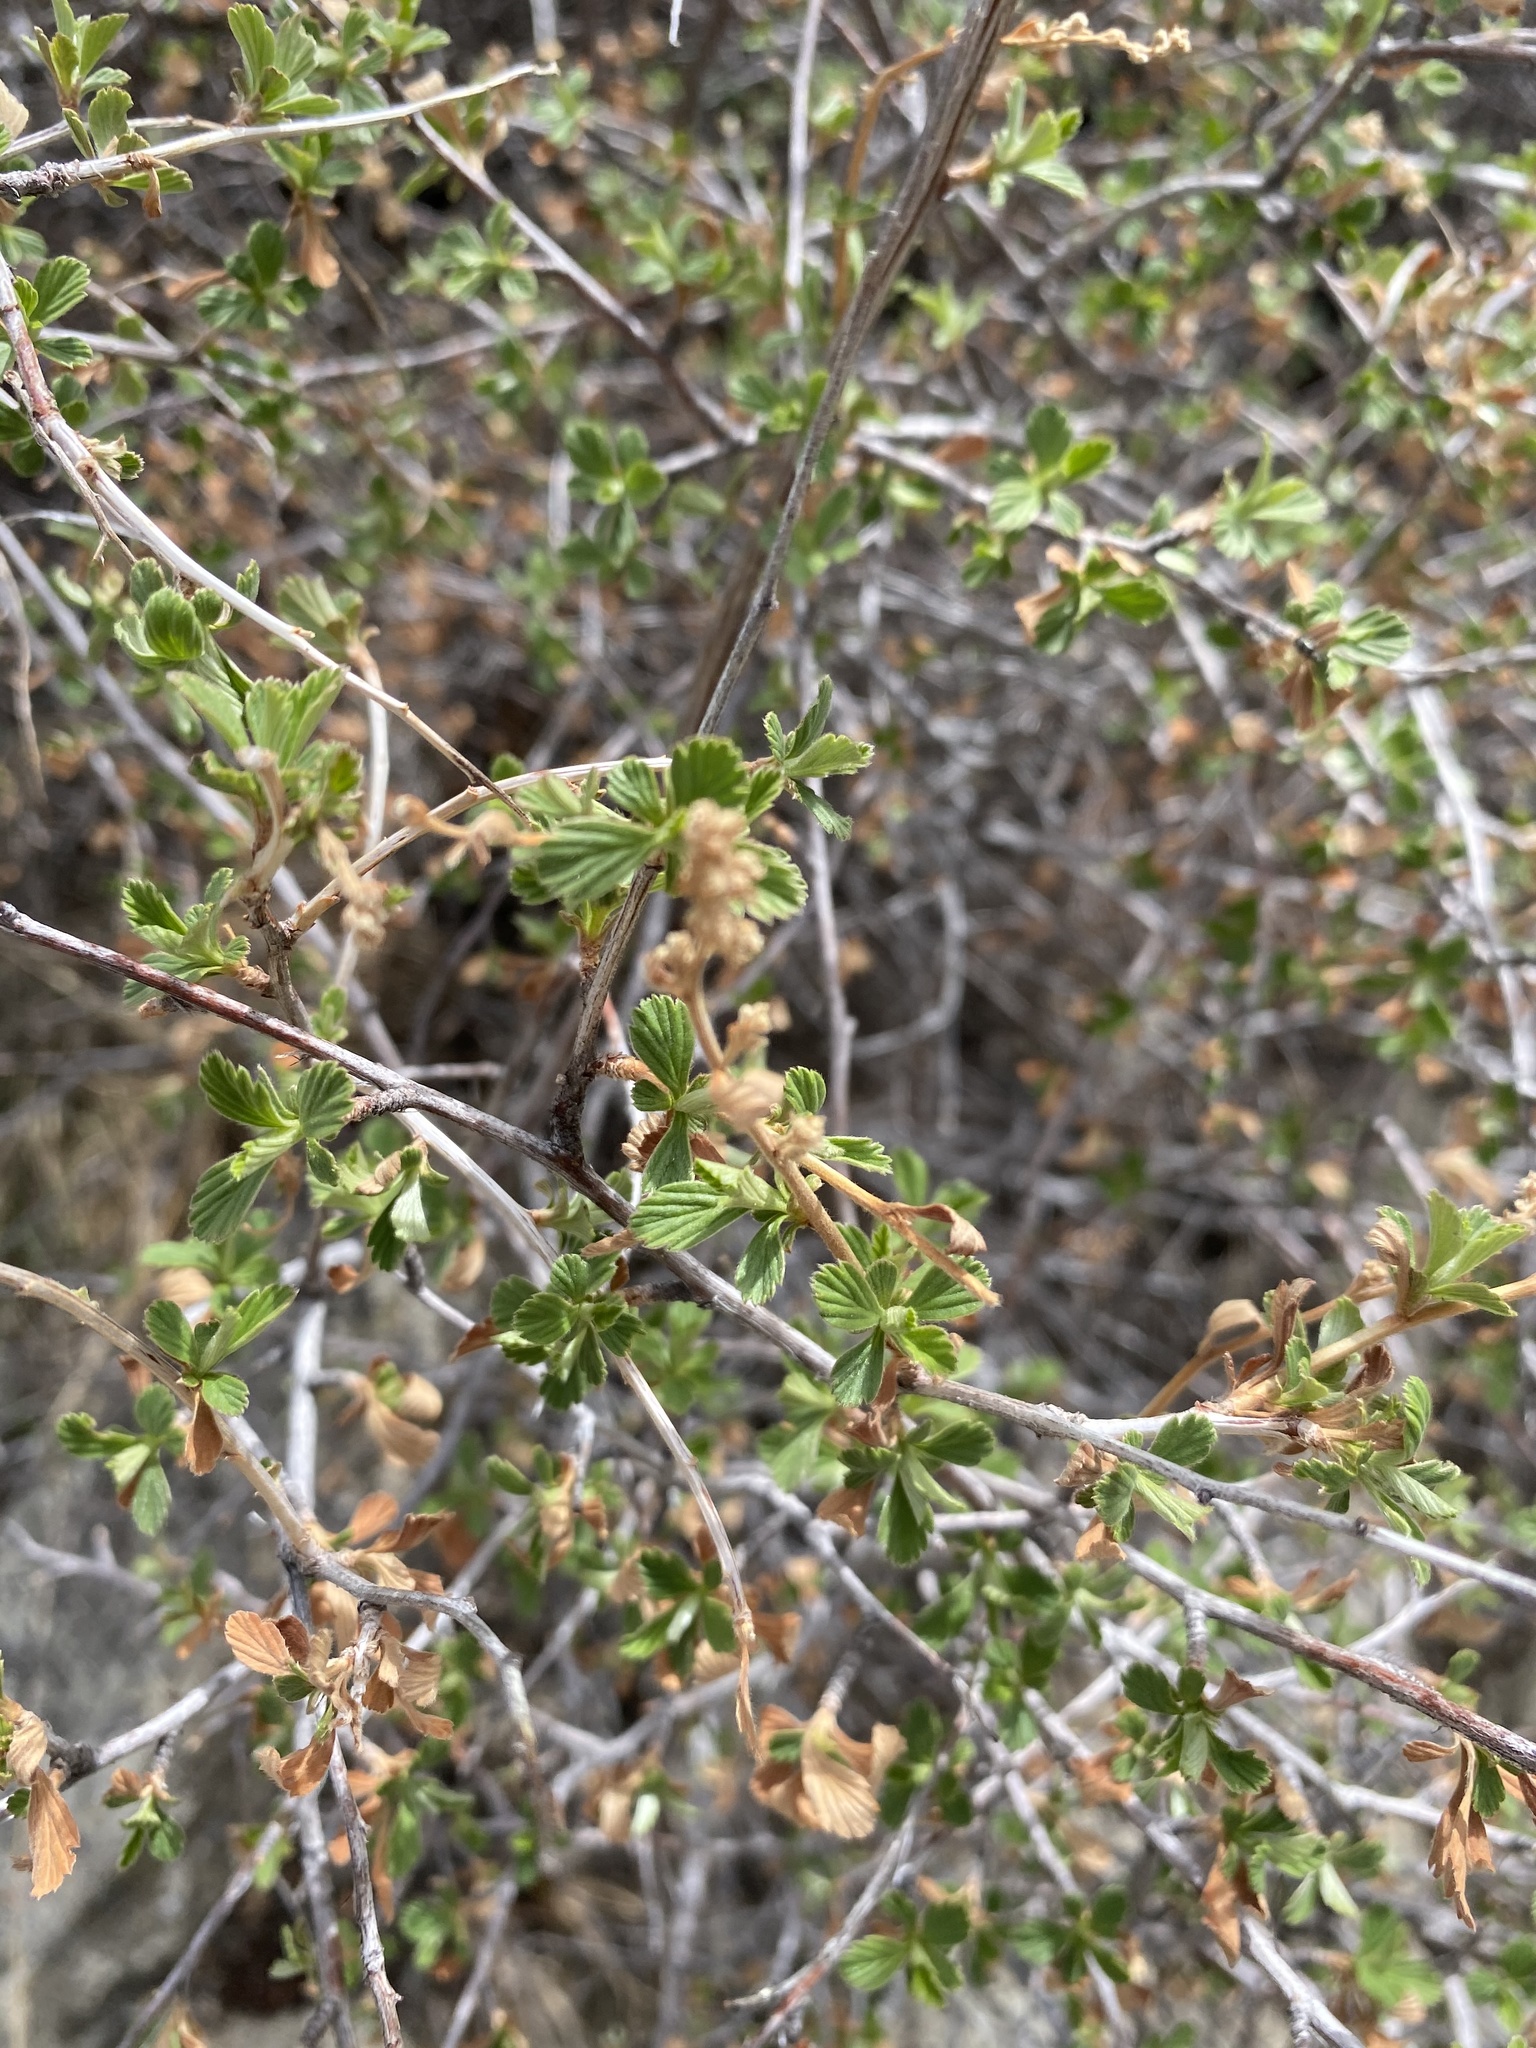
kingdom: Plantae
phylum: Tracheophyta
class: Magnoliopsida
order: Rosales
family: Rosaceae
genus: Holodiscus
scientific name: Holodiscus discolor
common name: Oceanspray
